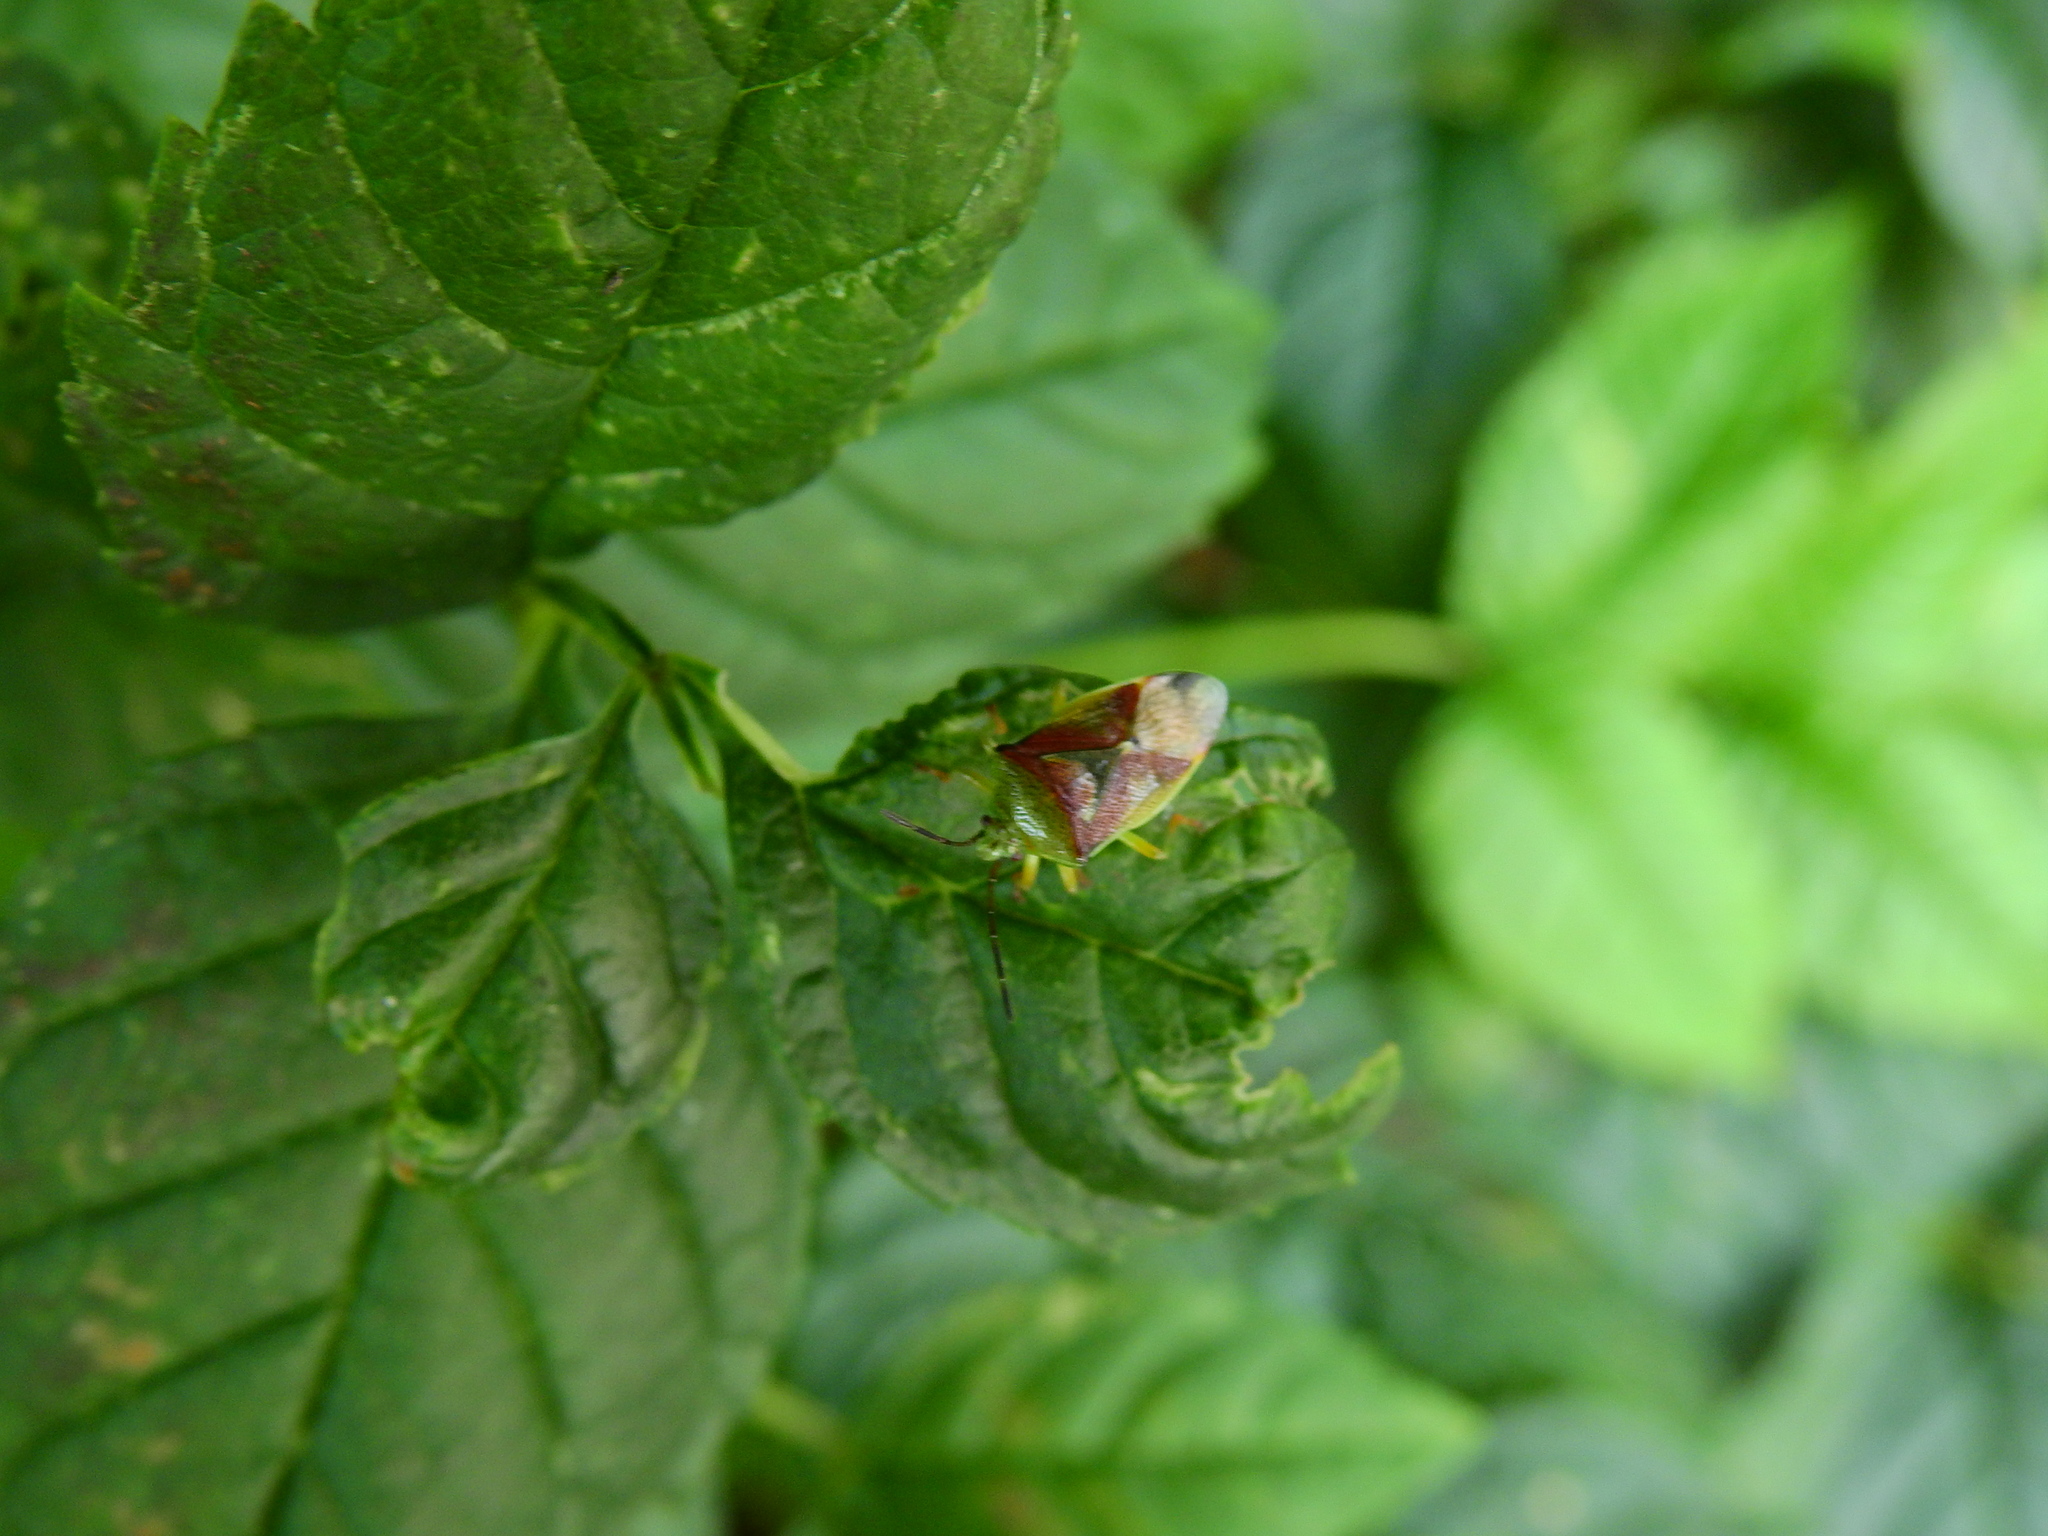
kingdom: Animalia
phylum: Arthropoda
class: Insecta
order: Hemiptera
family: Acanthosomatidae
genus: Elasmostethus
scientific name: Elasmostethus interstinctus
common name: Birch shieldbug
